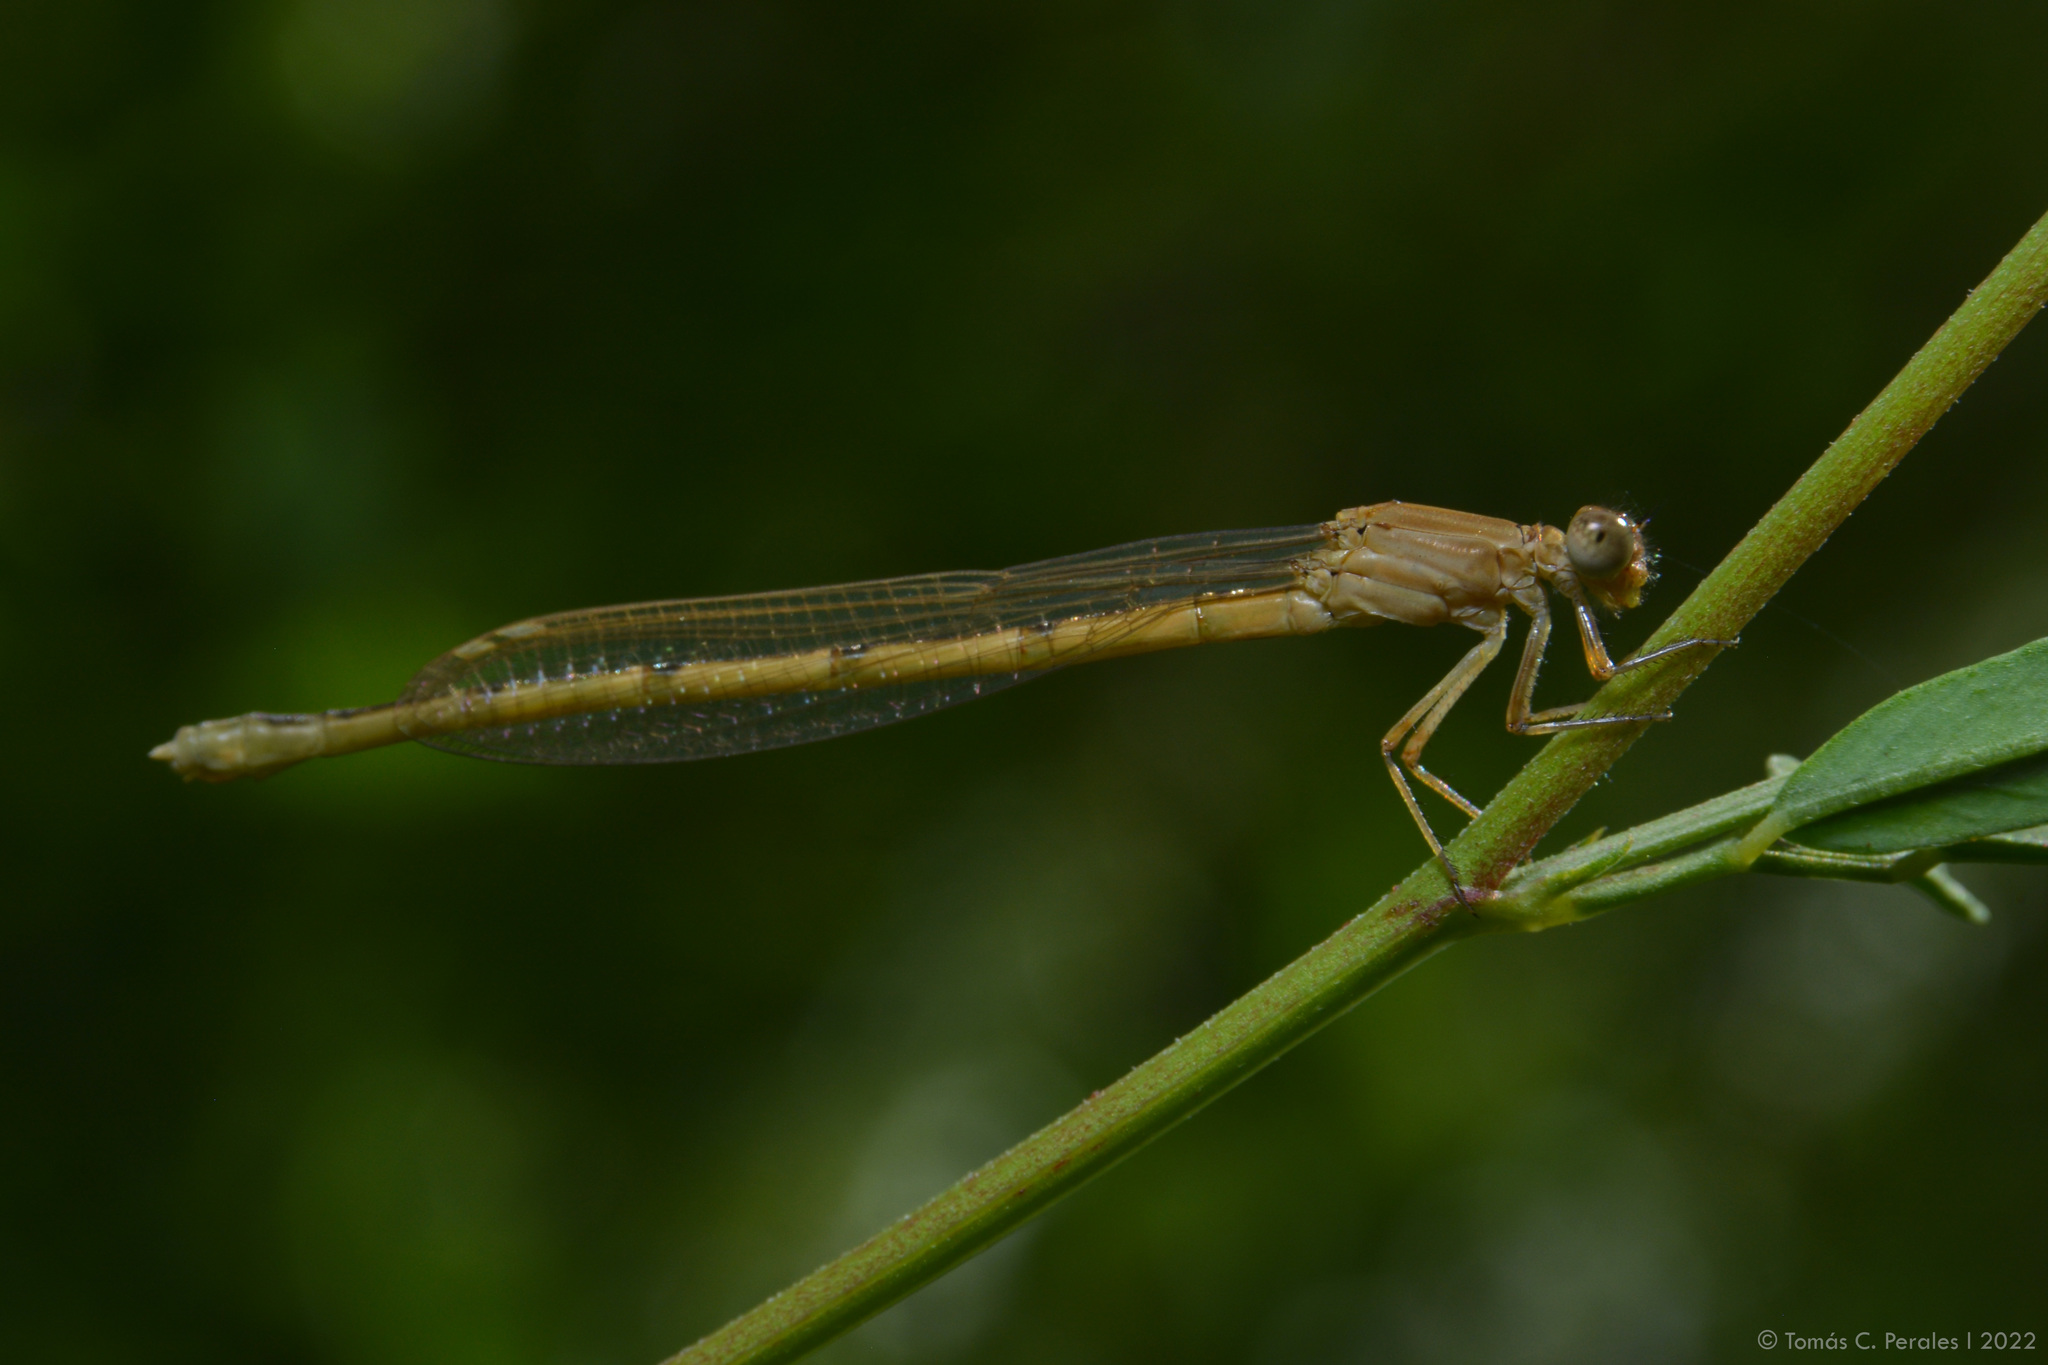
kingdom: Animalia
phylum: Arthropoda
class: Insecta
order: Odonata
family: Coenagrionidae
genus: Oxyagrion
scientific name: Oxyagrion rubidum
